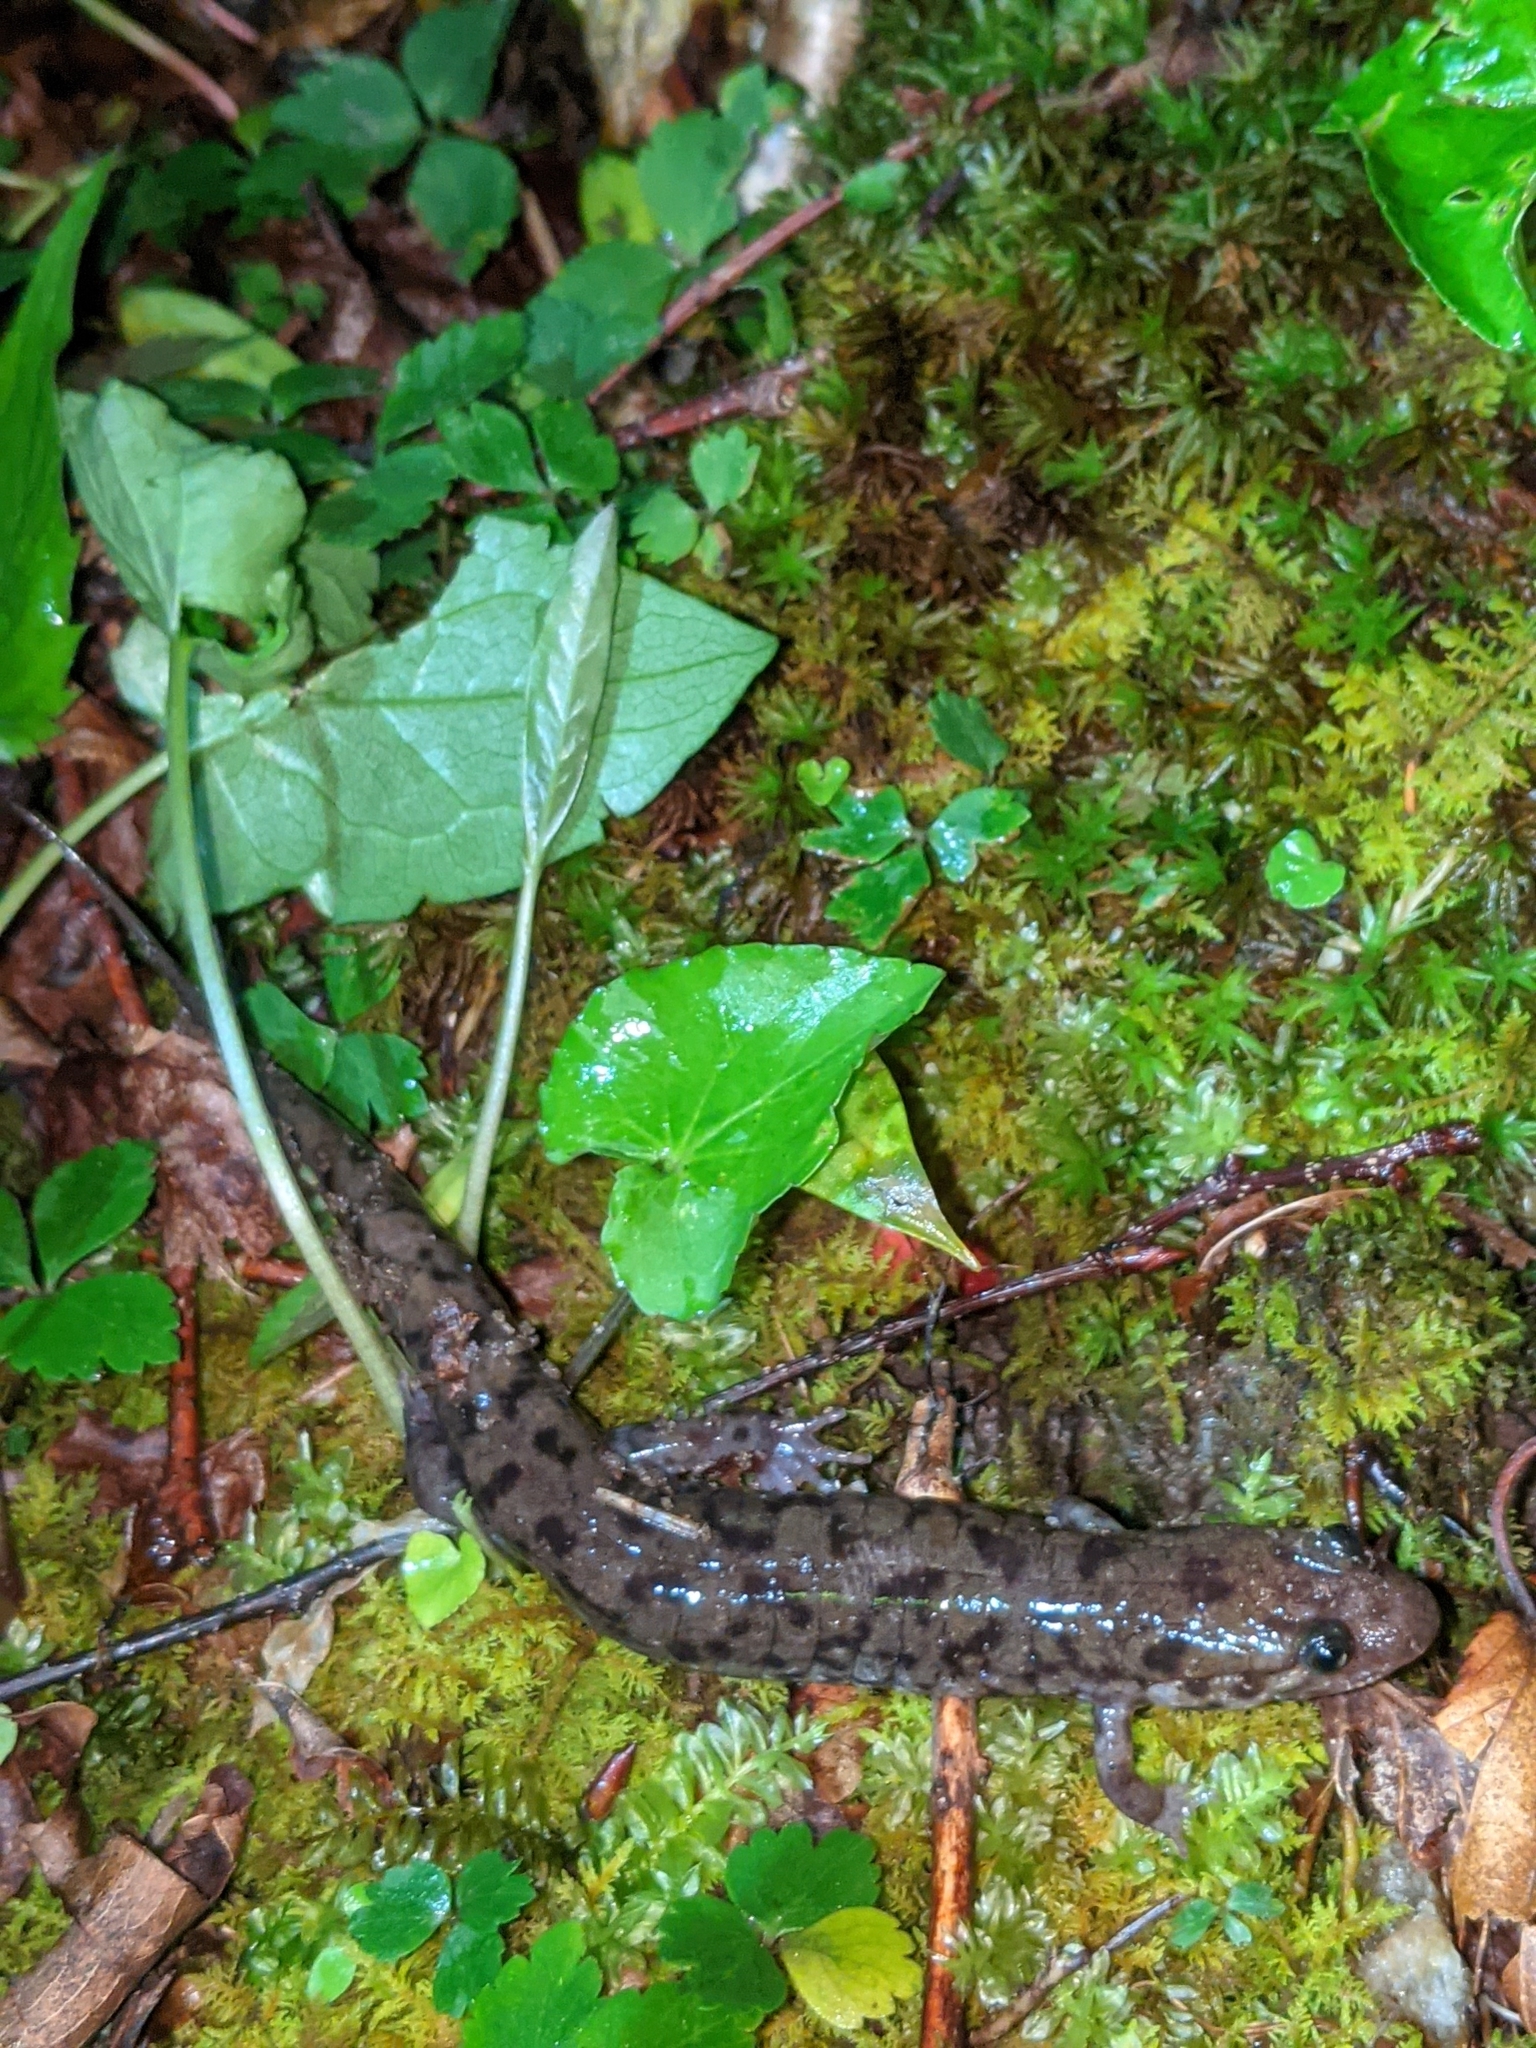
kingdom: Animalia
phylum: Chordata
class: Amphibia
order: Caudata
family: Plethodontidae
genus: Desmognathus
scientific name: Desmognathus monticola
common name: Seal salamander
